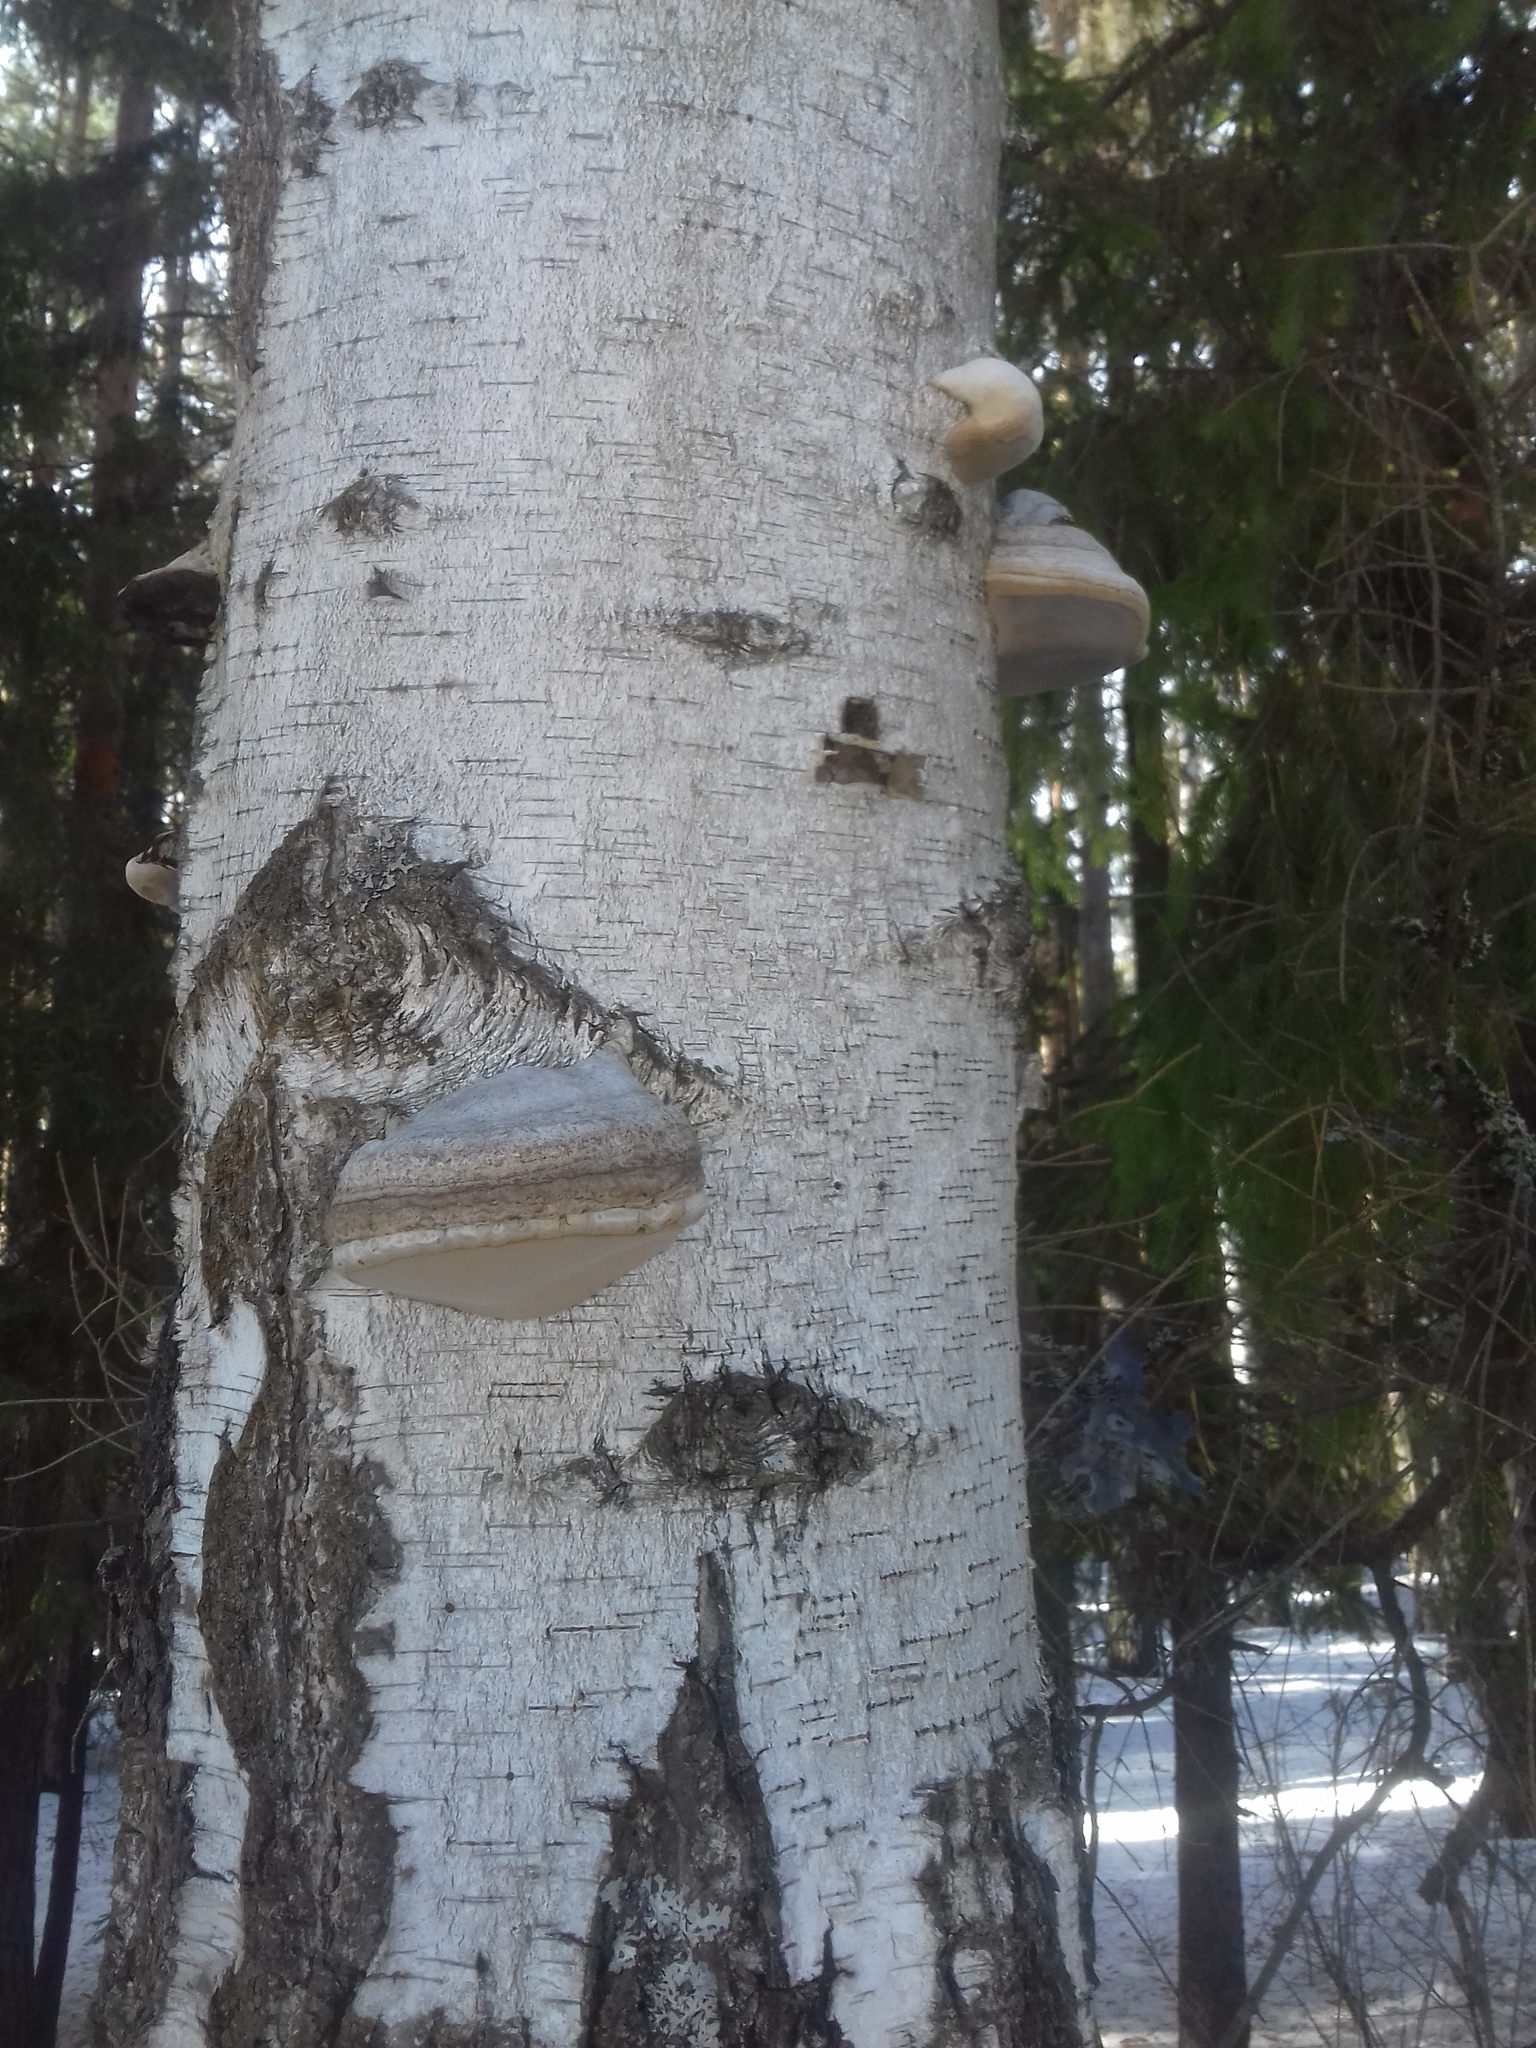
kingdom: Fungi
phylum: Basidiomycota
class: Agaricomycetes
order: Polyporales
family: Polyporaceae
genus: Fomes
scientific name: Fomes fomentarius
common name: Hoof fungus
